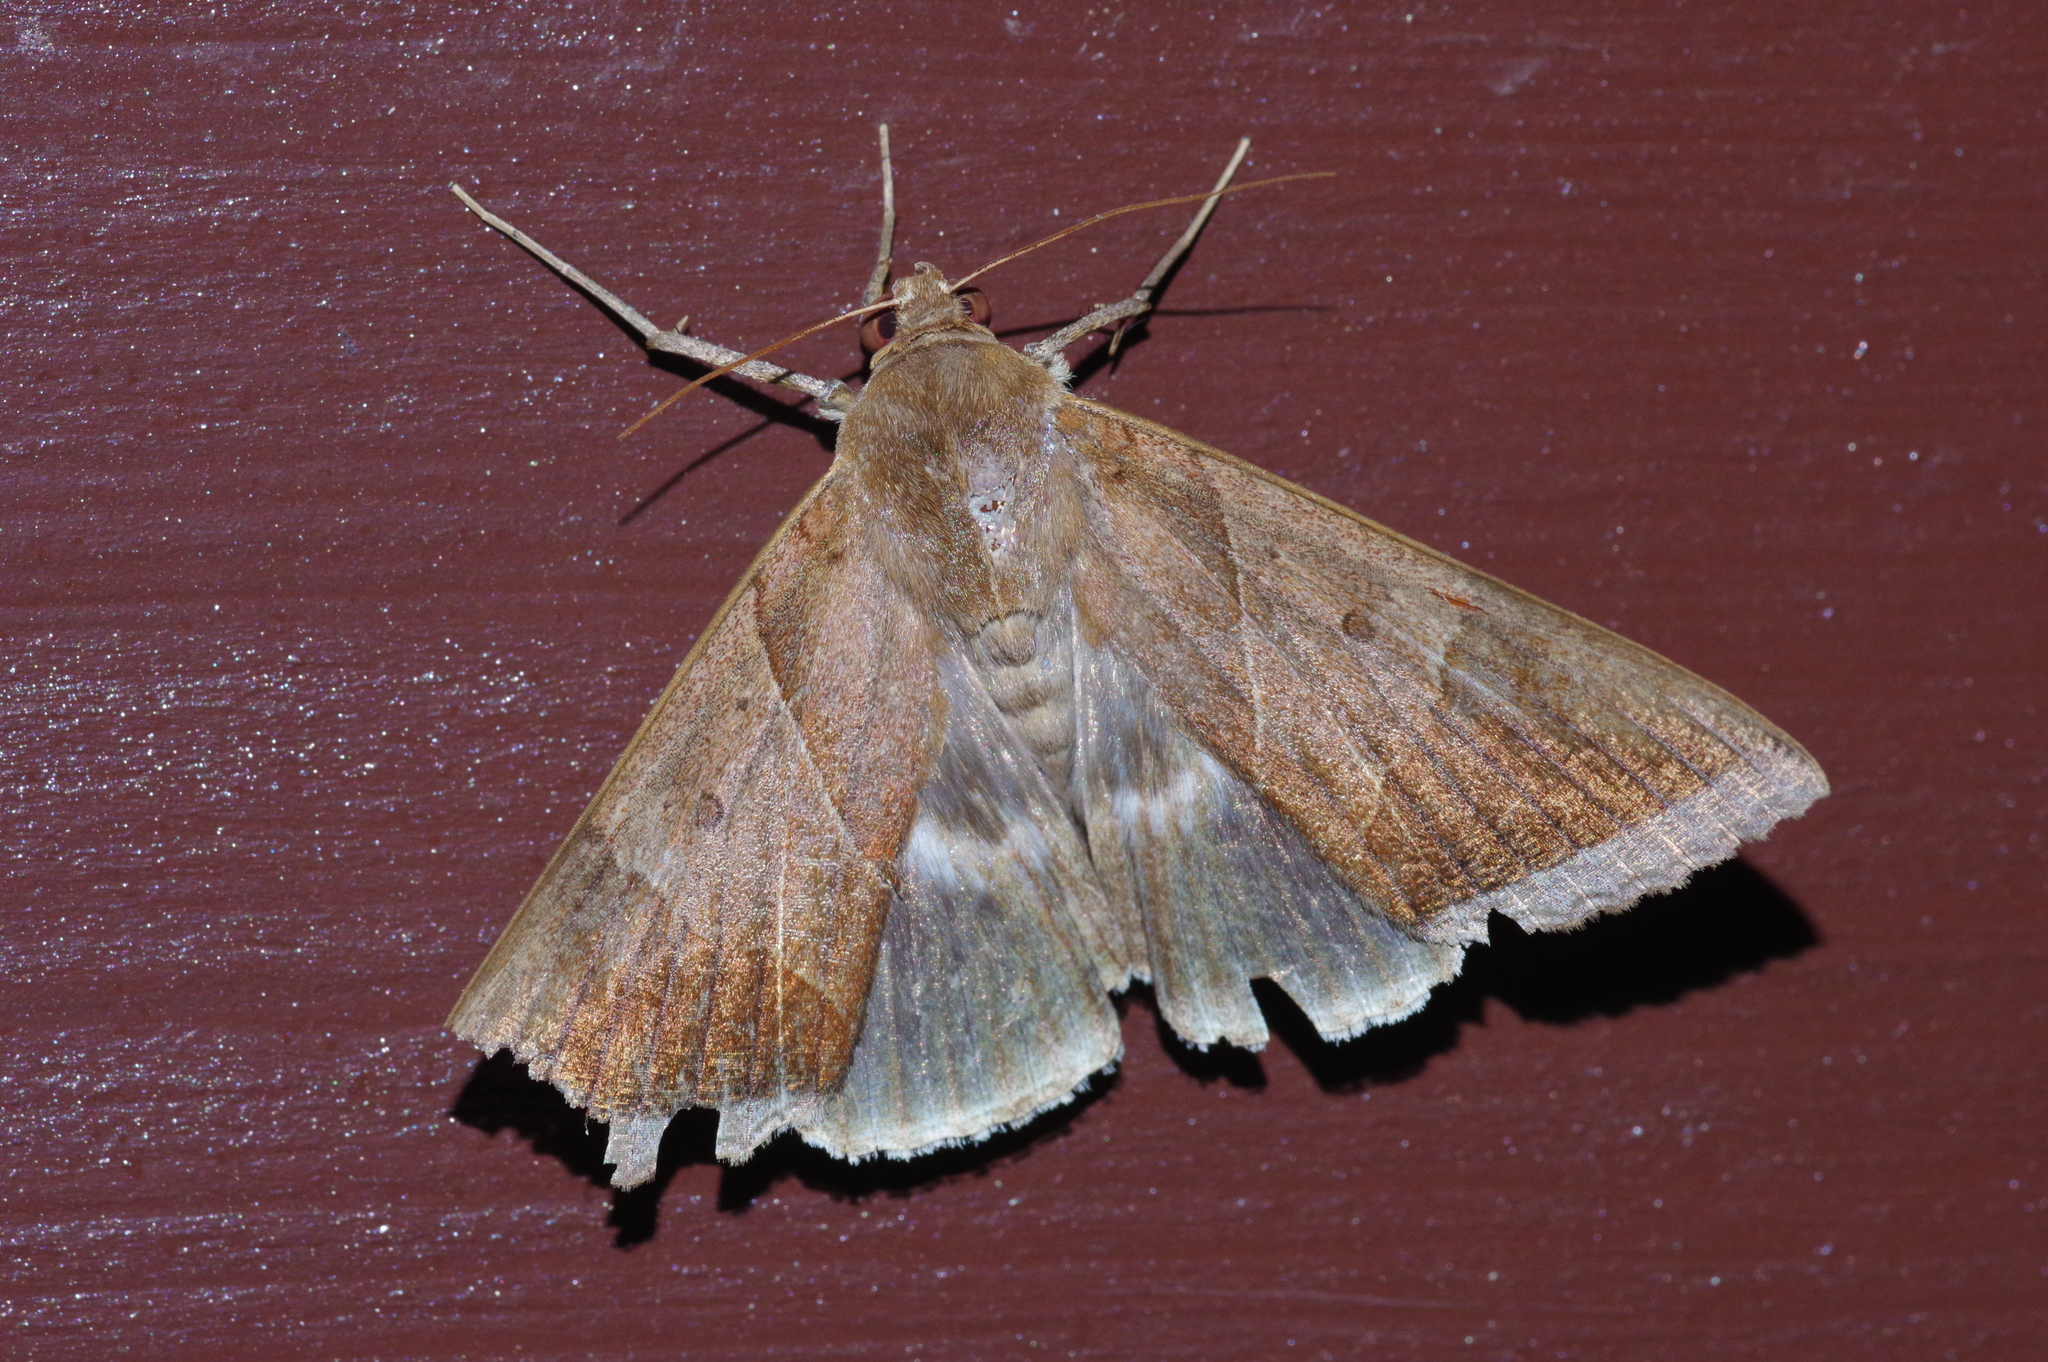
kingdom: Animalia
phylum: Arthropoda
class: Insecta
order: Lepidoptera
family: Erebidae
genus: Artena
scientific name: Artena dotata
